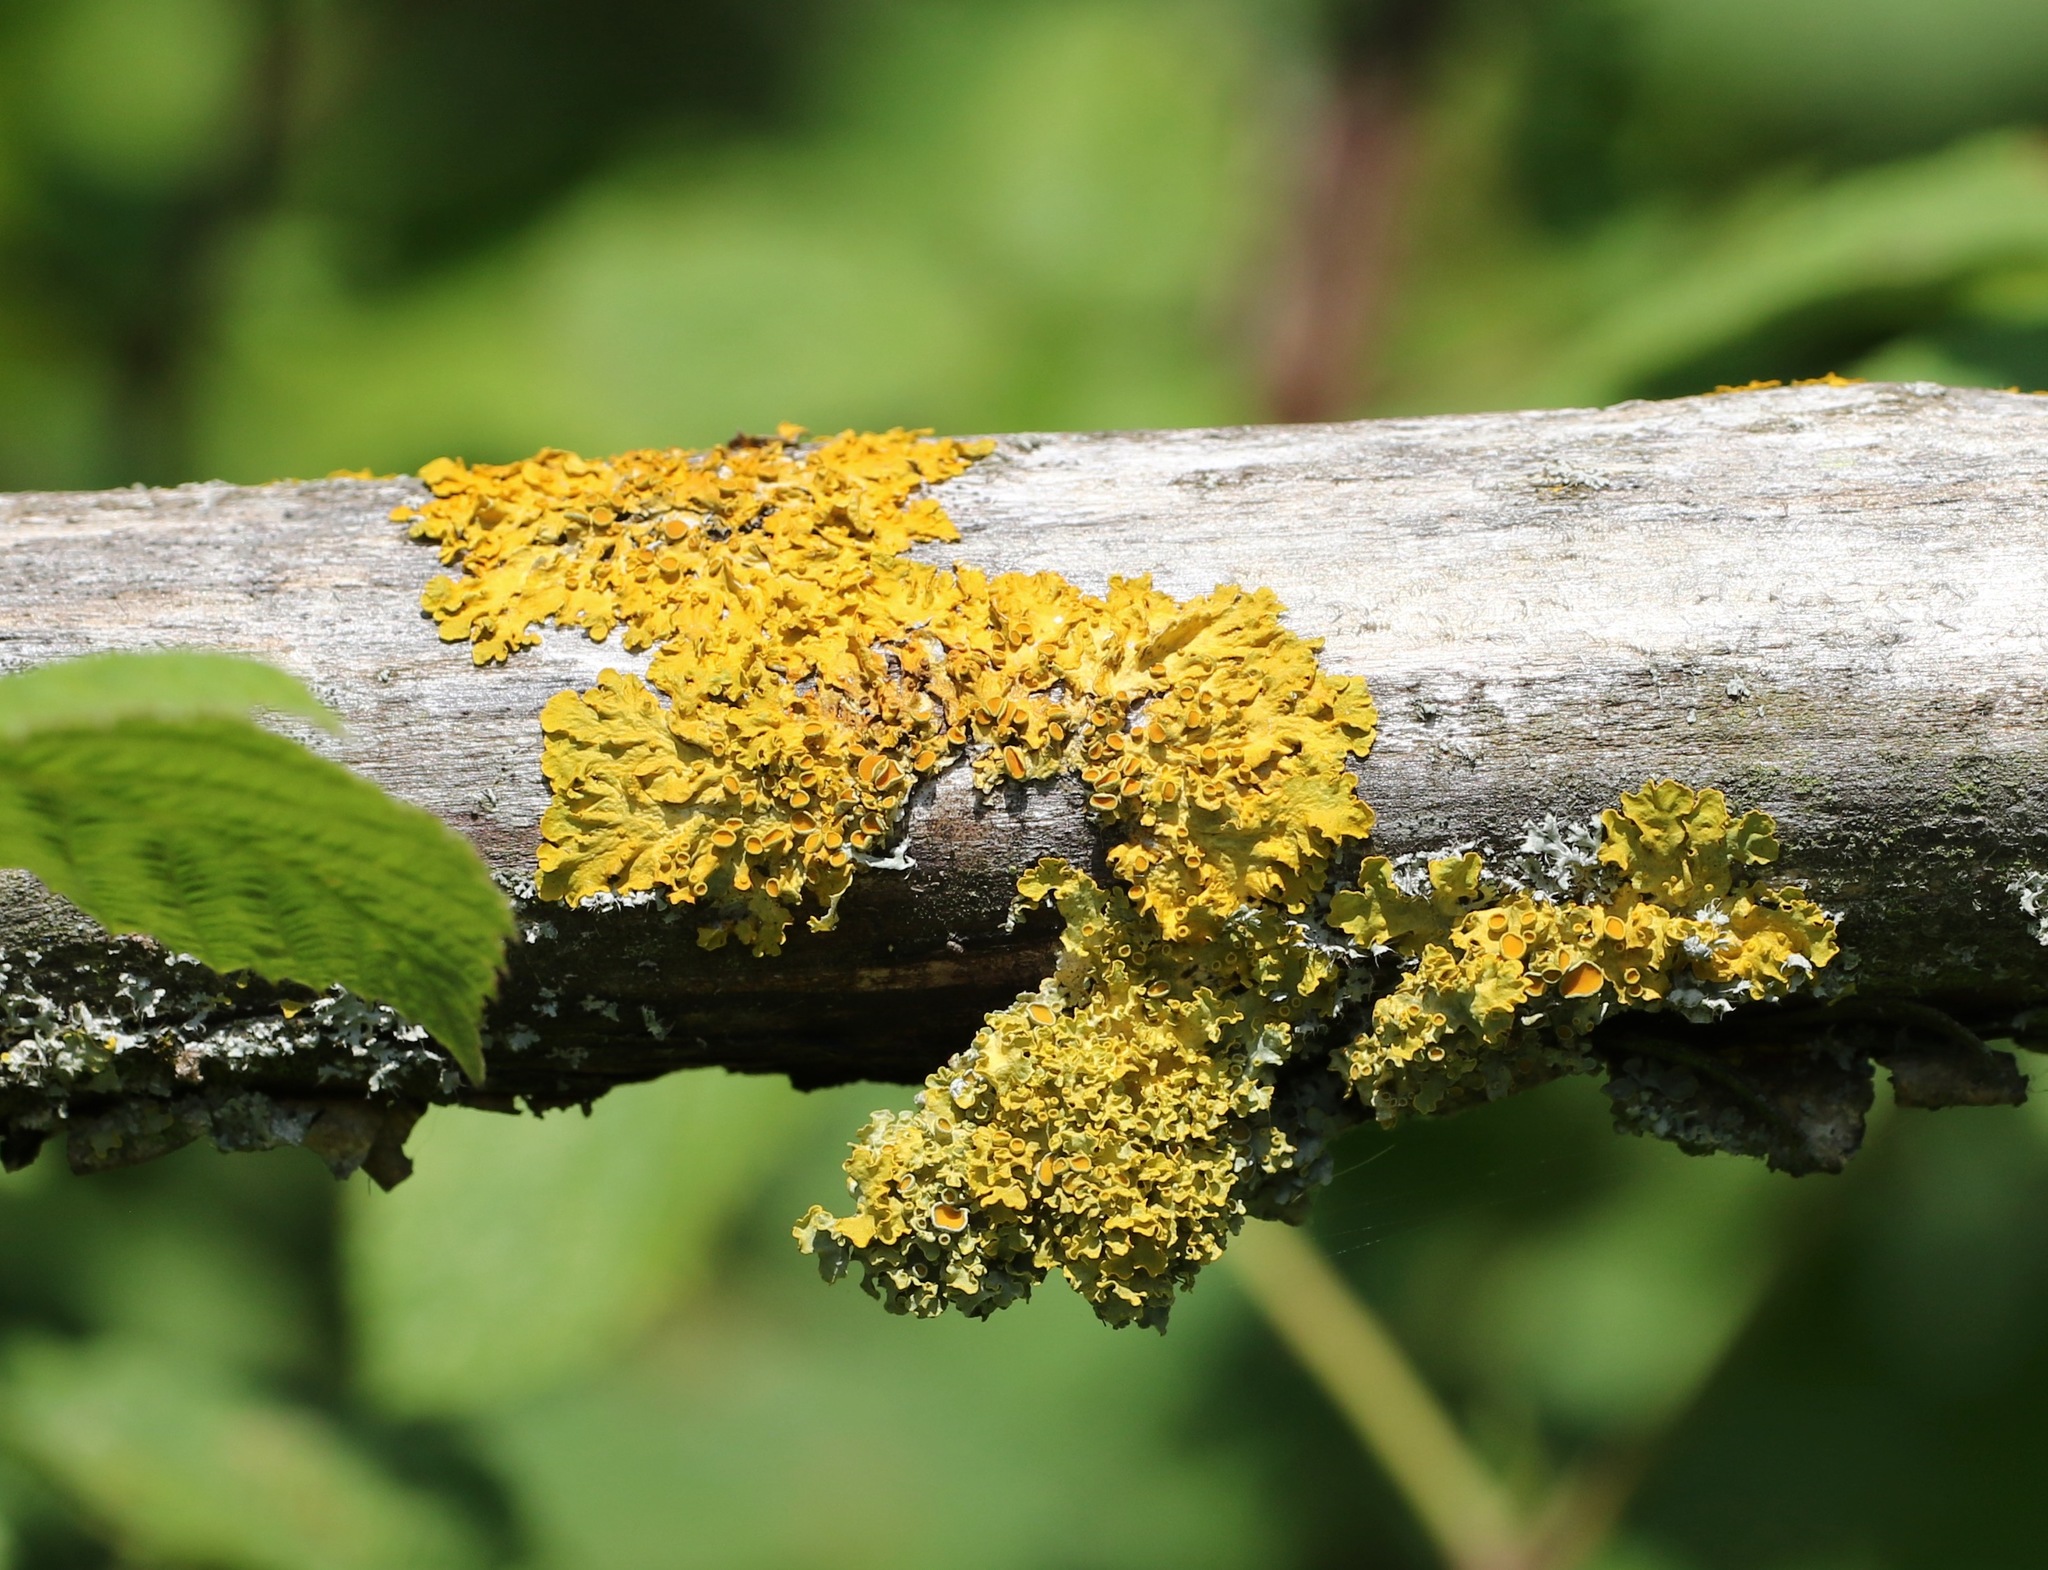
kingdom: Fungi
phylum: Ascomycota
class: Lecanoromycetes
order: Teloschistales
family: Teloschistaceae
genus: Xanthoria
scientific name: Xanthoria parietina
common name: Common orange lichen
